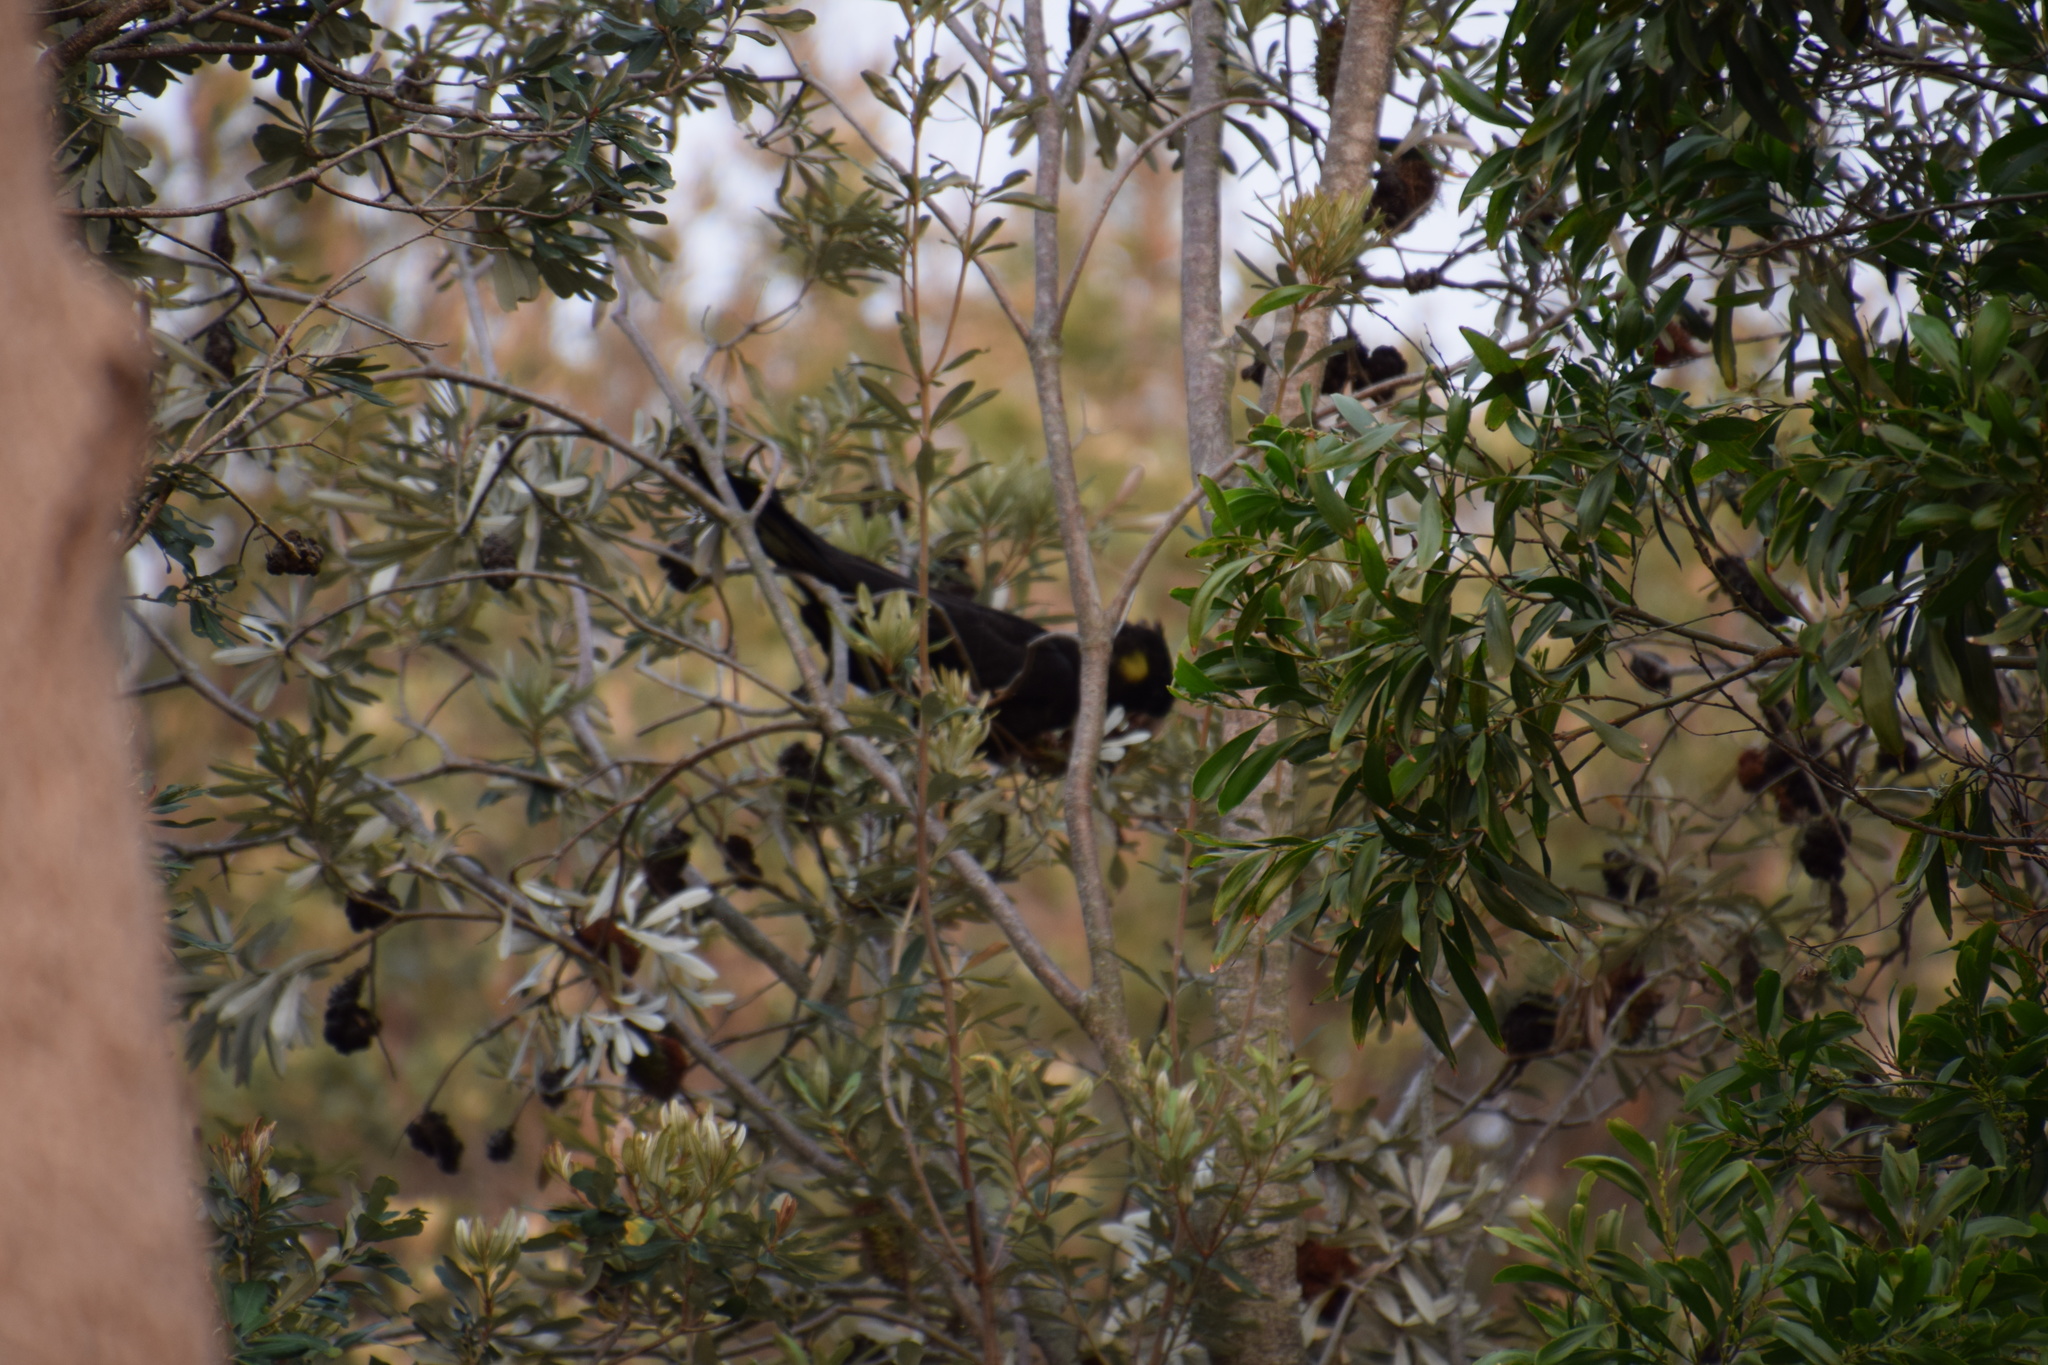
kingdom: Animalia
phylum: Chordata
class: Aves
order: Psittaciformes
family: Cacatuidae
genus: Zanda
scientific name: Zanda funerea
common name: Yellow-tailed black-cockatoo
